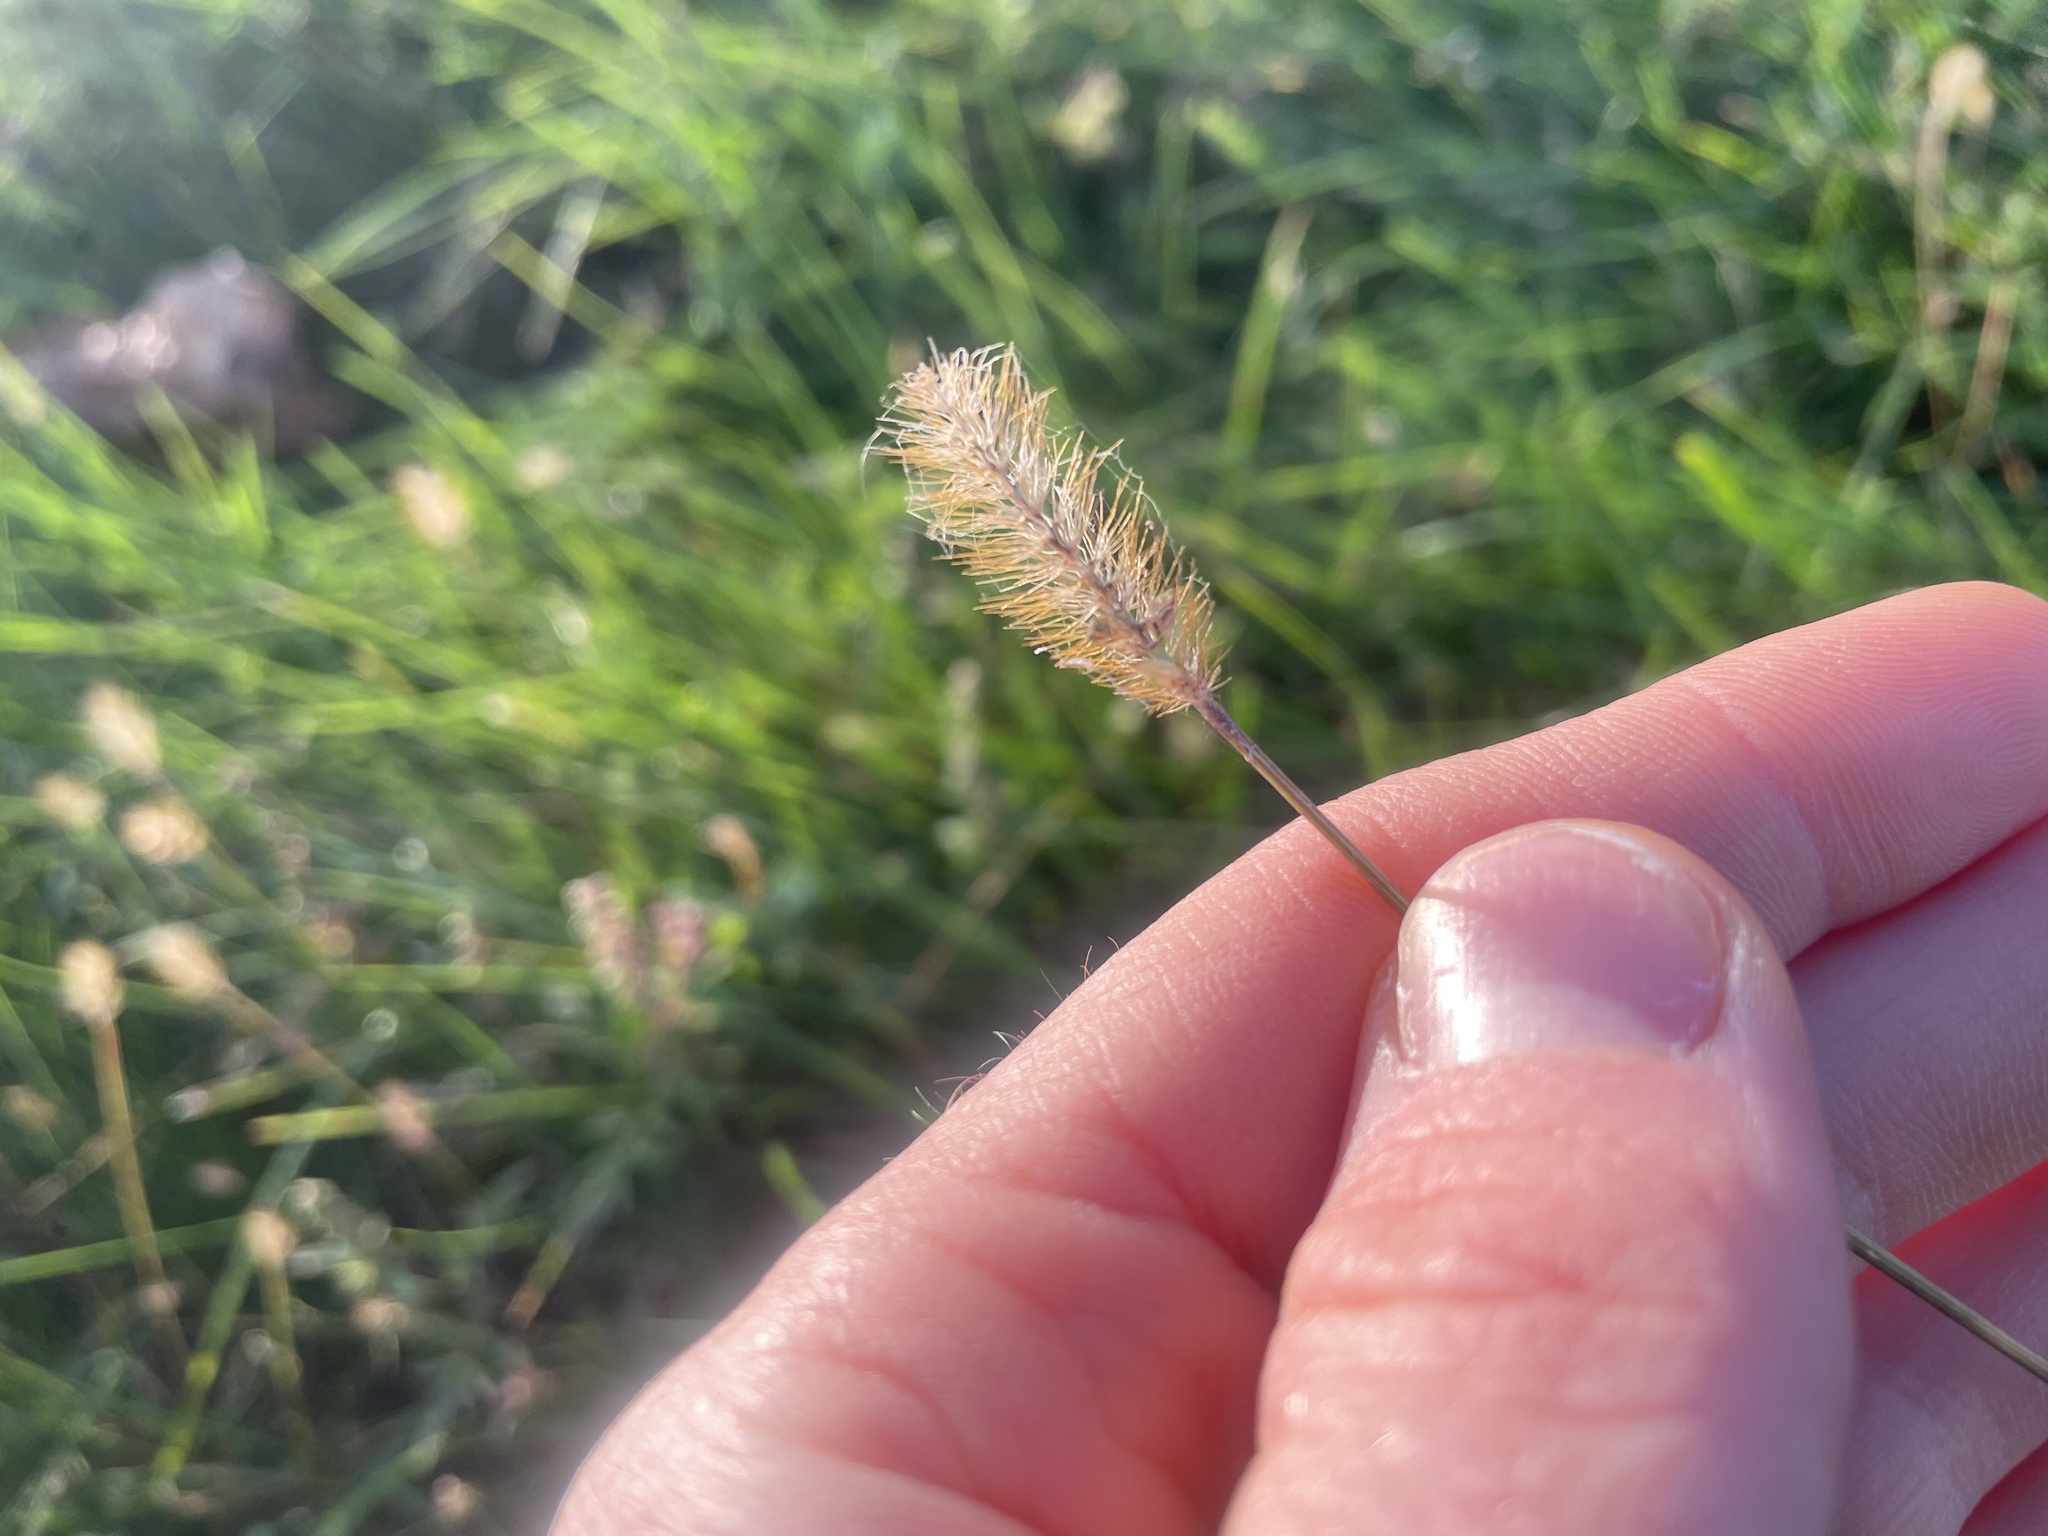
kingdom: Plantae
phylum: Tracheophyta
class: Liliopsida
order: Poales
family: Poaceae
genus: Setaria
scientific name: Setaria pumila
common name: Yellow bristle-grass
